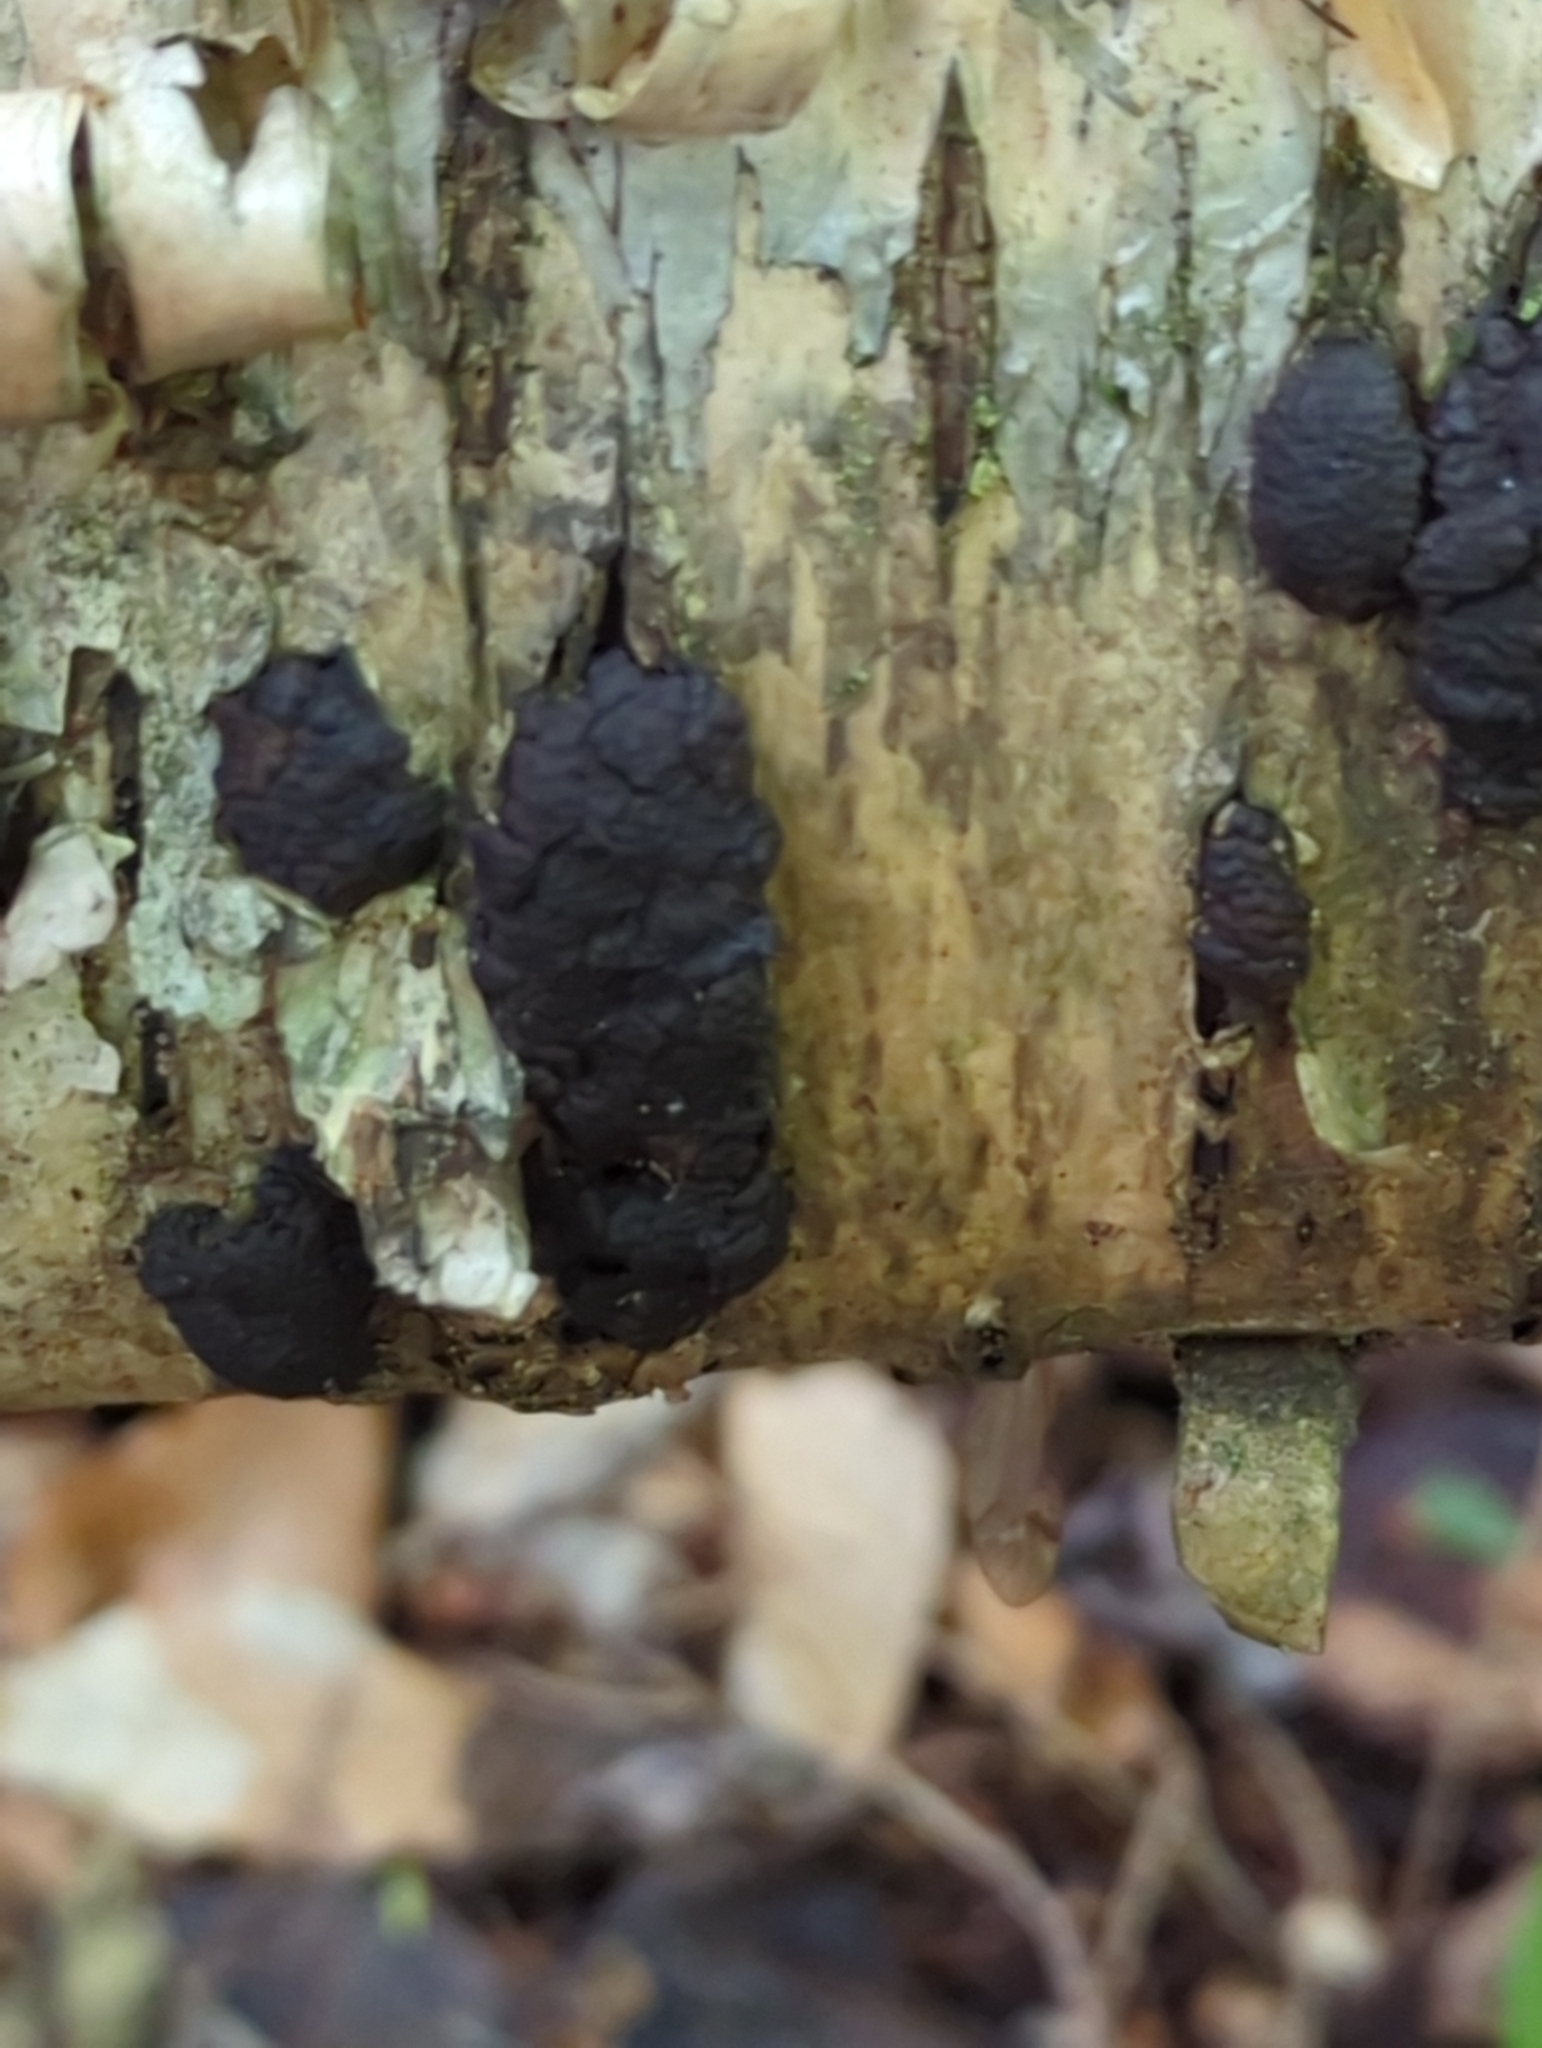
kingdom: Fungi
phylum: Ascomycota
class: Sordariomycetes
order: Xylariales
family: Hypoxylaceae
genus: Jackrogersella
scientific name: Jackrogersella multiformis
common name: Birch woodwart
